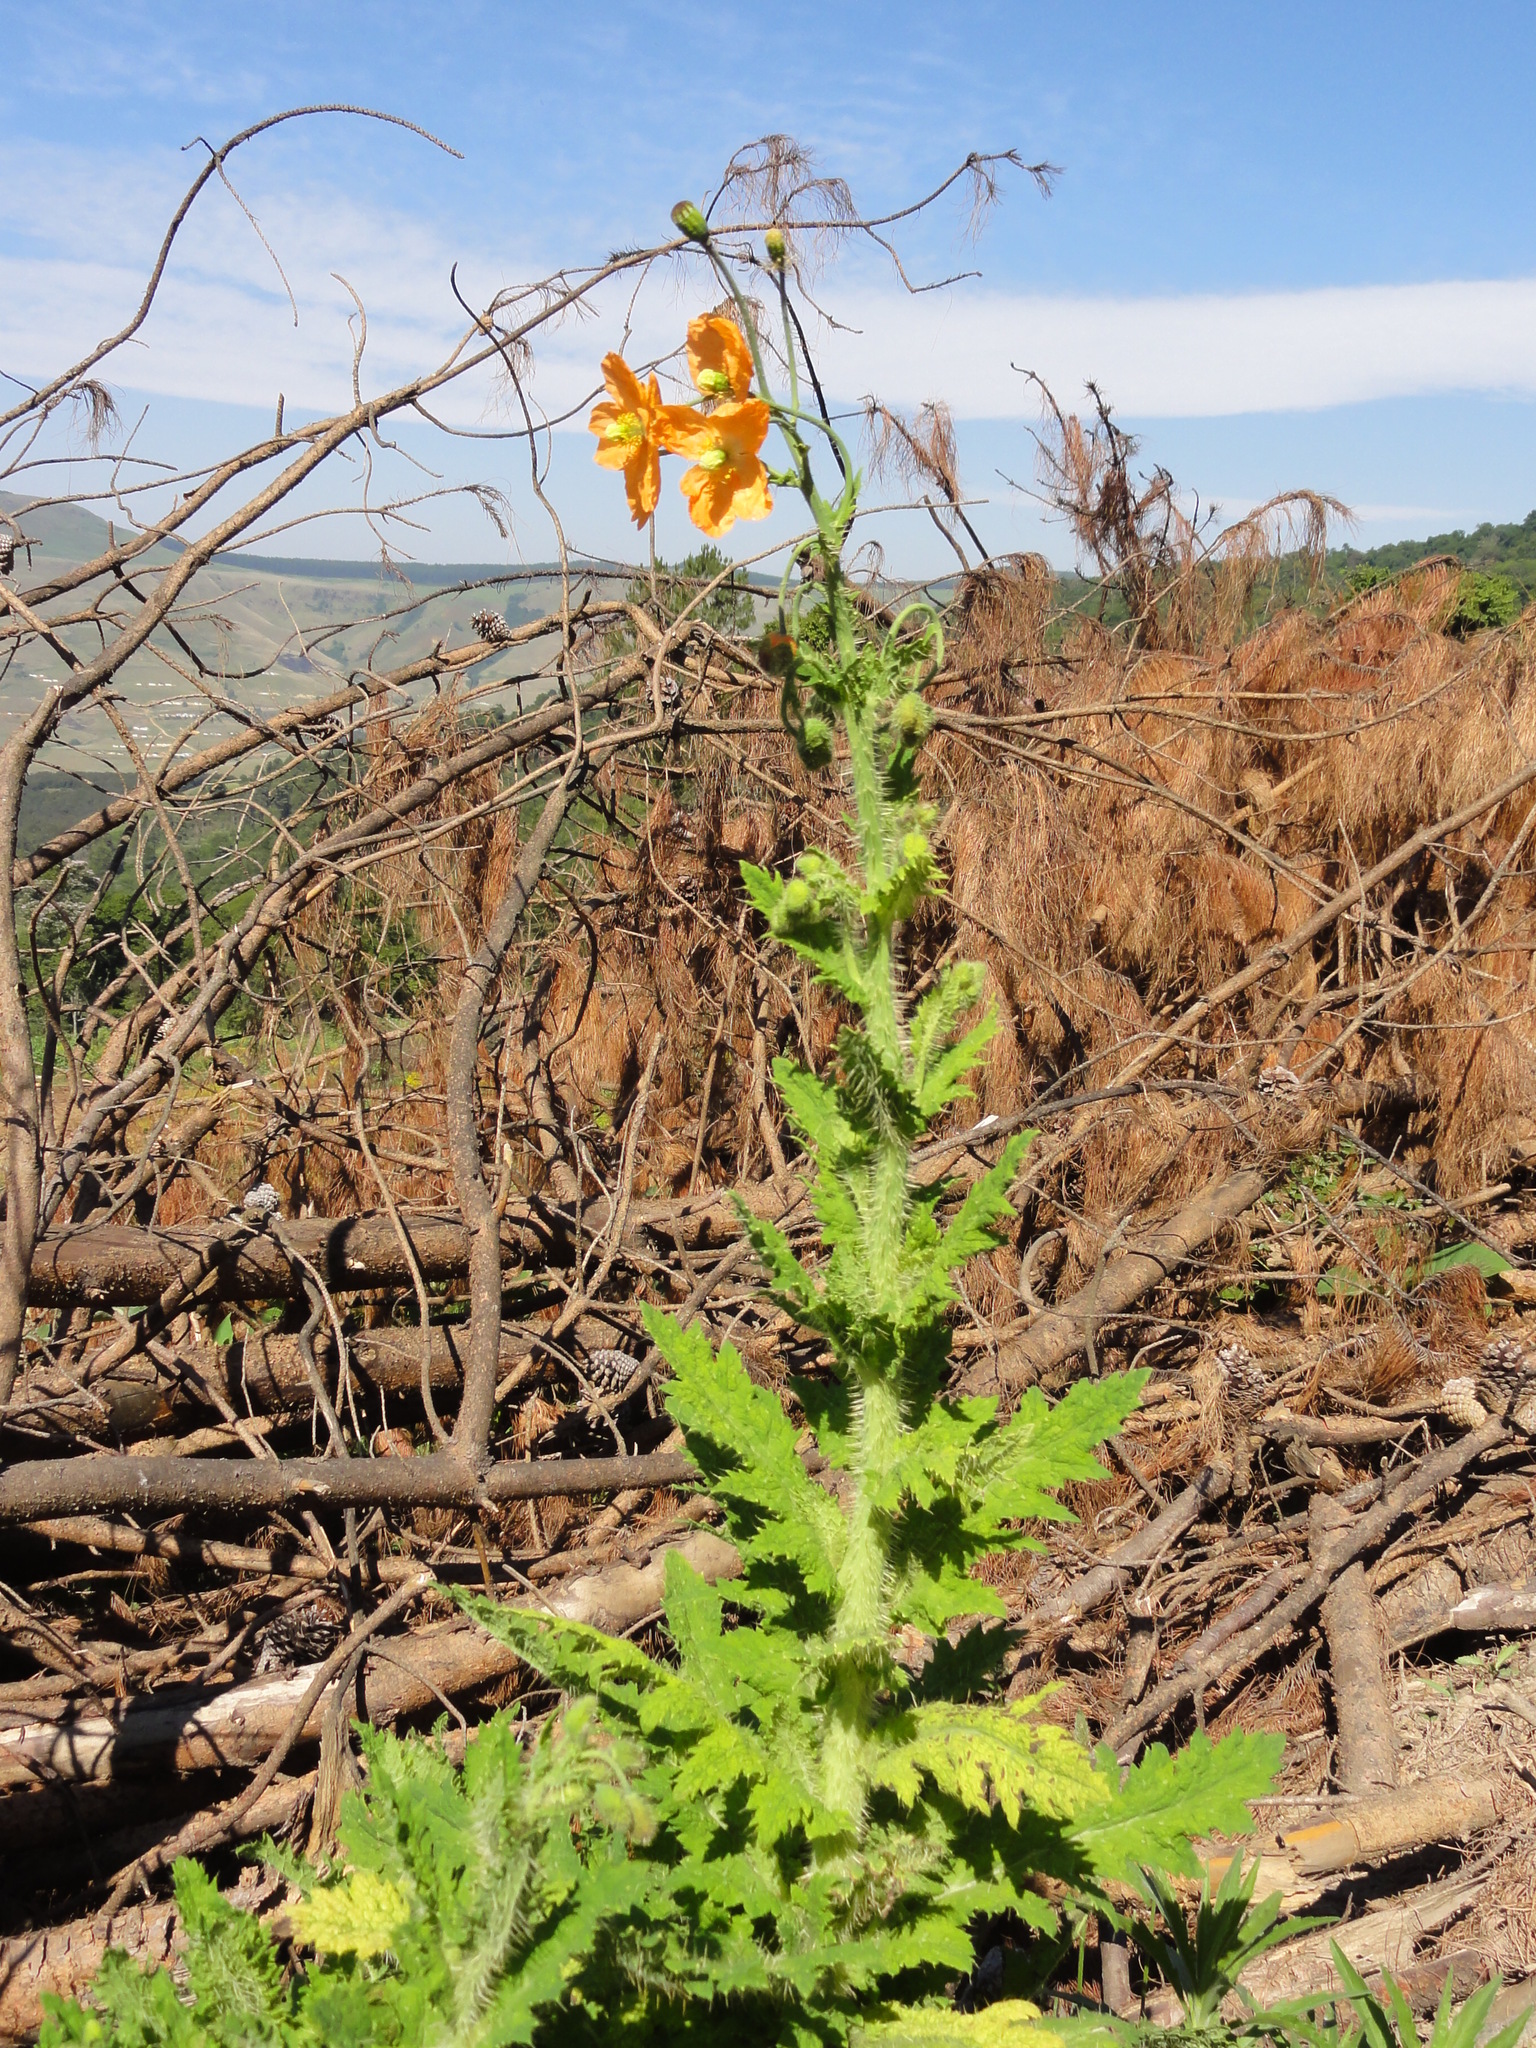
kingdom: Plantae
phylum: Tracheophyta
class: Magnoliopsida
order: Ranunculales
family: Papaveraceae
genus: Papaver
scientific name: Papaver aculeatum
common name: Bristle poppy
